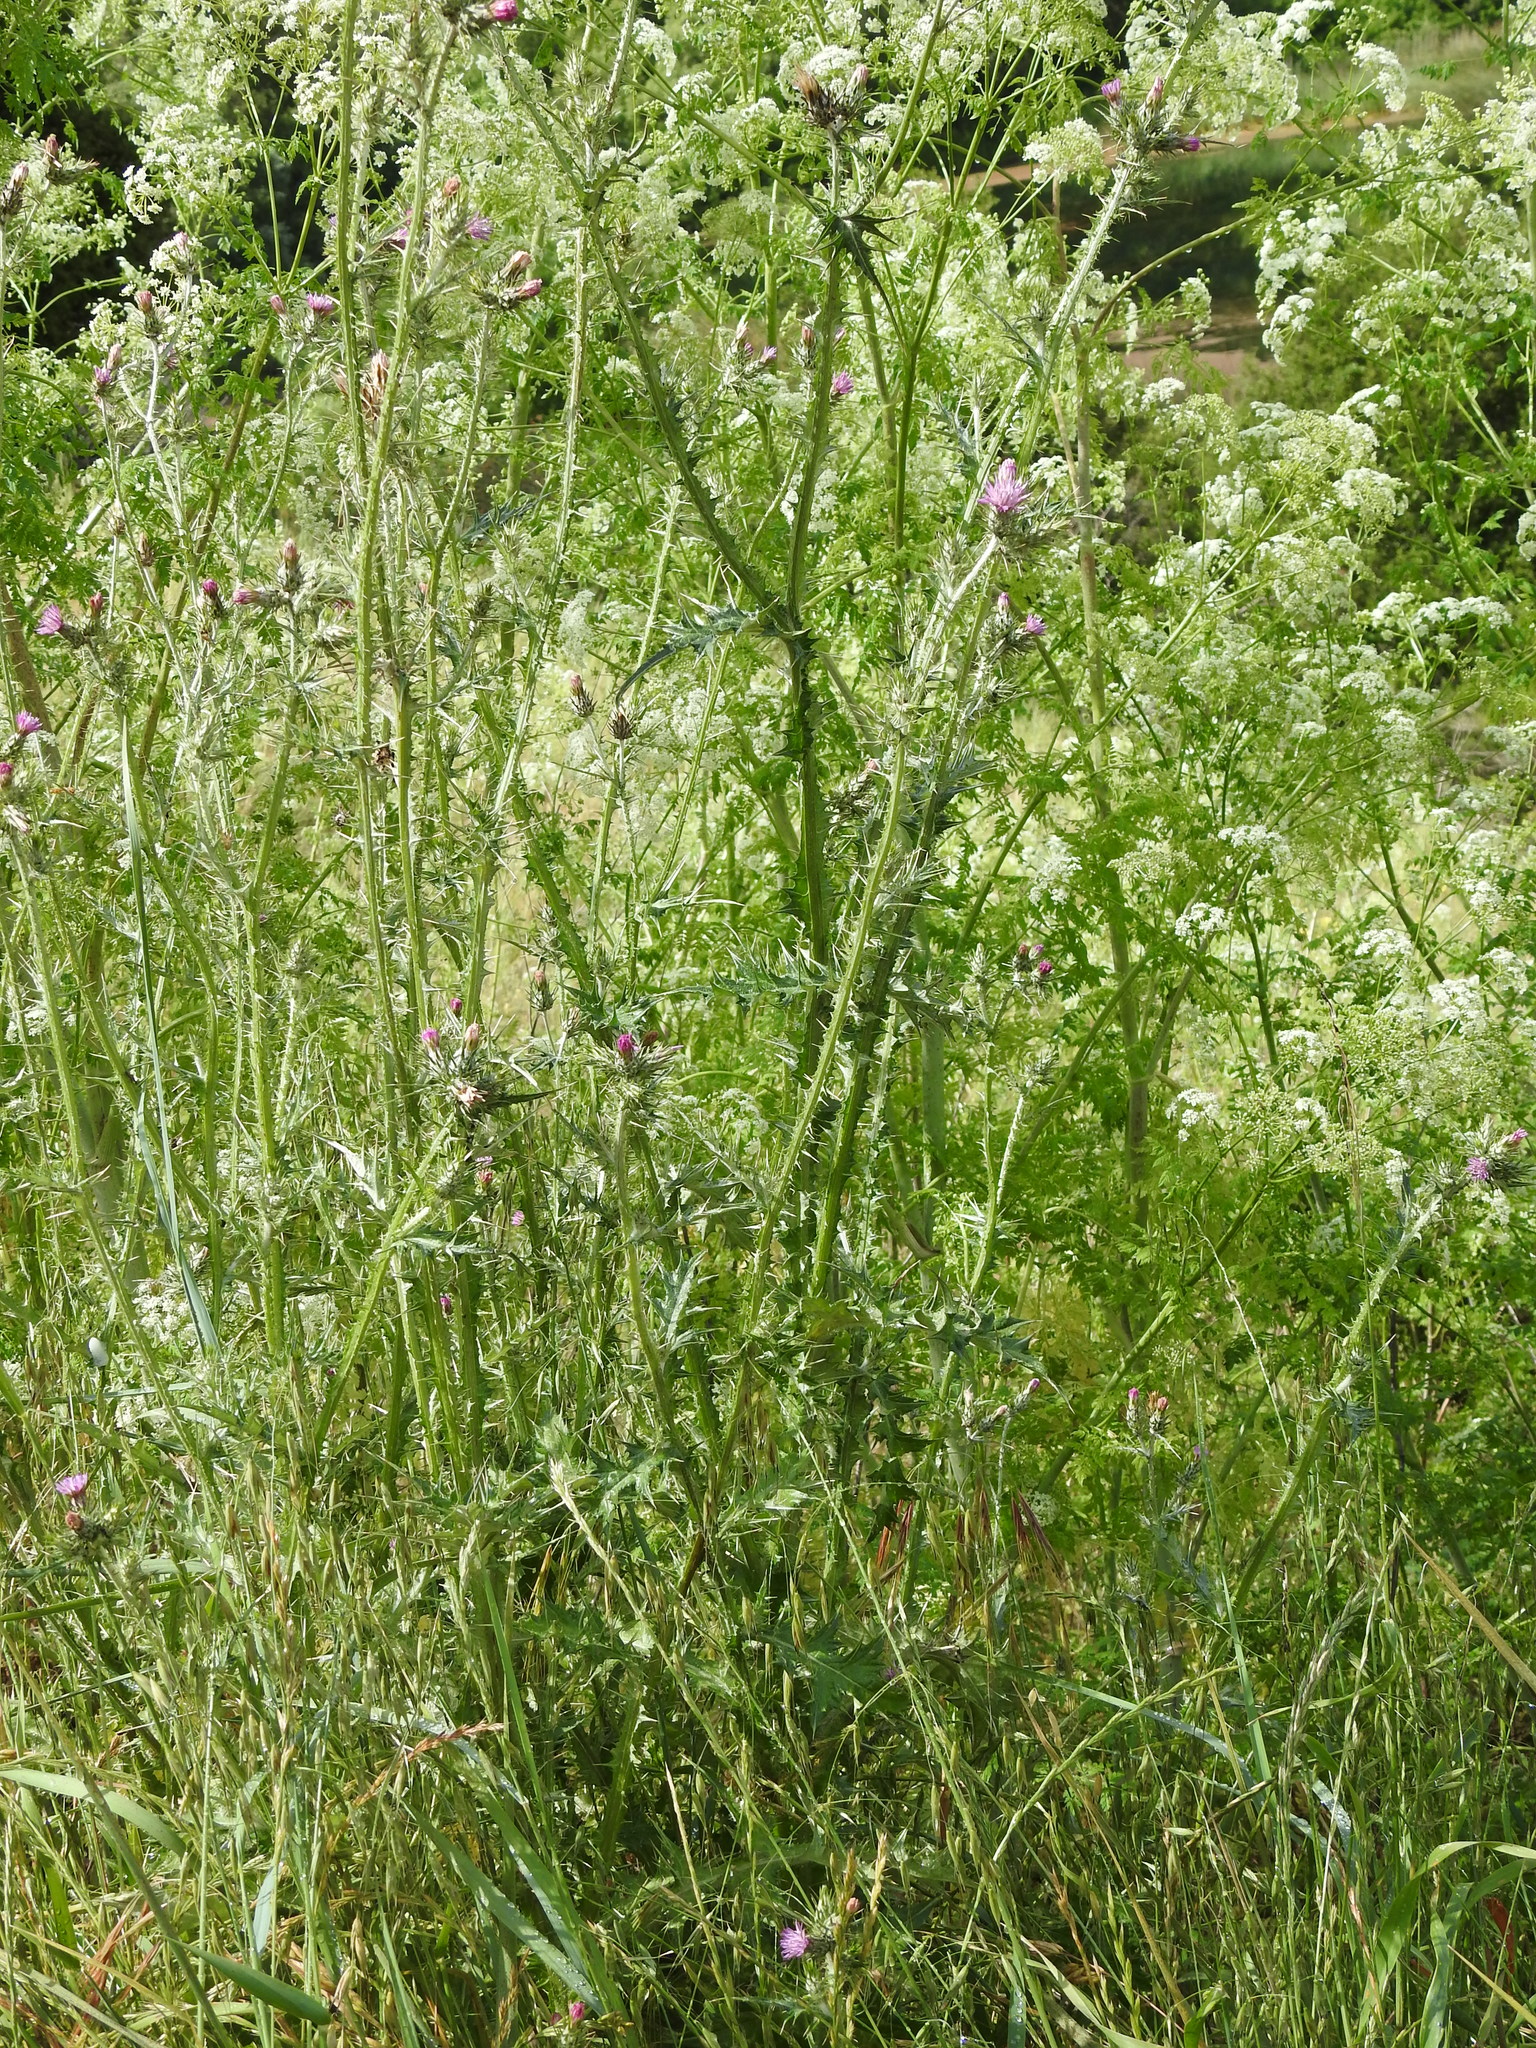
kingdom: Plantae
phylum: Tracheophyta
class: Magnoliopsida
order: Apiales
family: Apiaceae
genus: Conium
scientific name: Conium maculatum
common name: Hemlock
